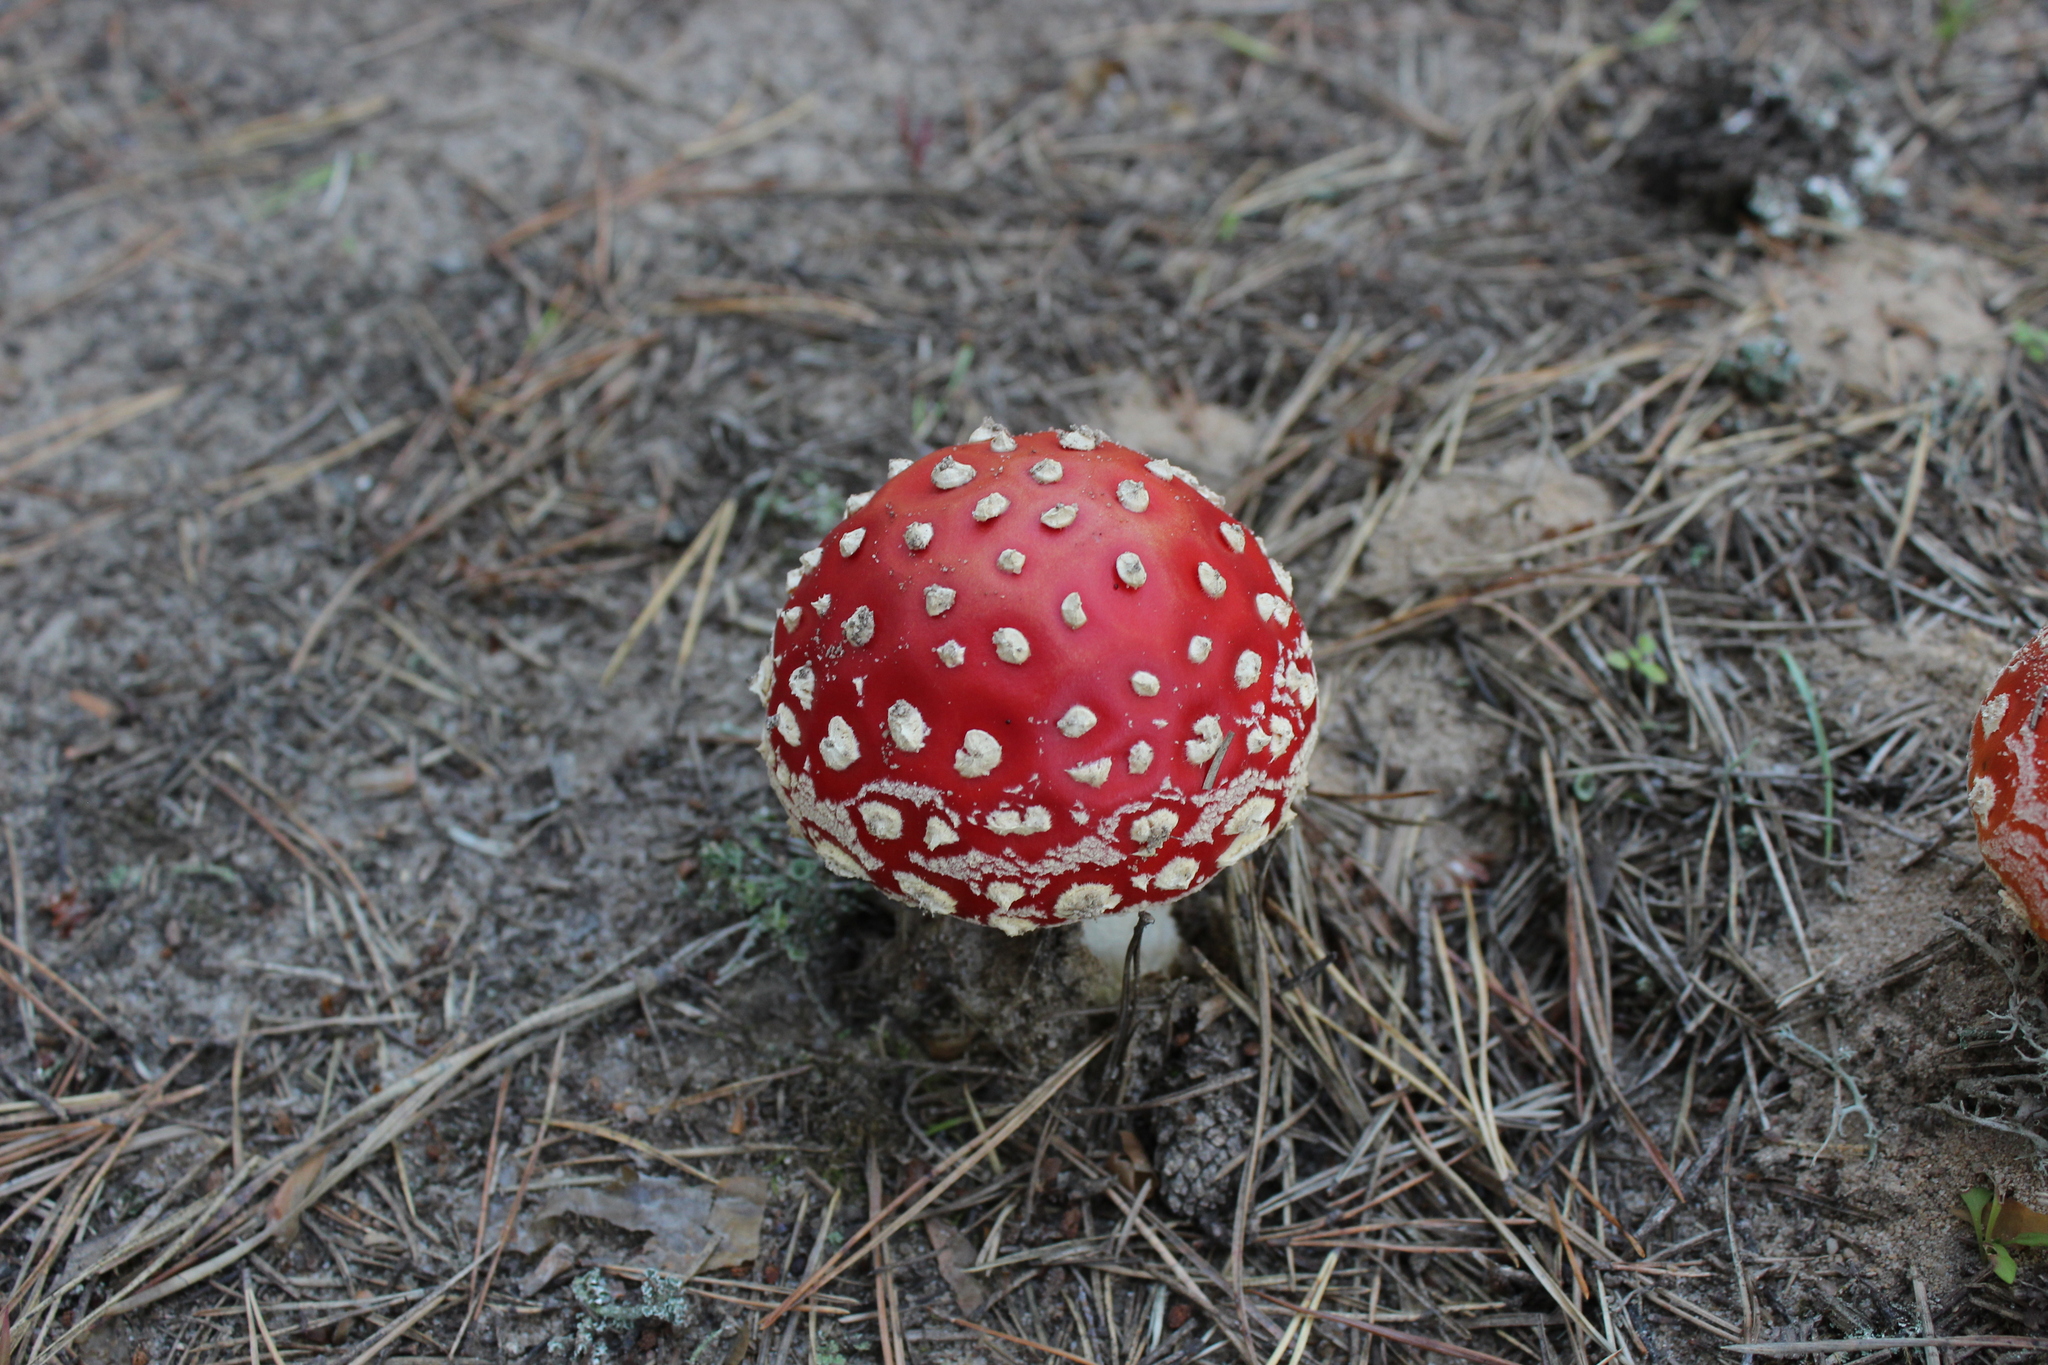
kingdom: Fungi
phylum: Basidiomycota
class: Agaricomycetes
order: Agaricales
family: Amanitaceae
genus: Amanita
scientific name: Amanita muscaria
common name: Fly agaric
